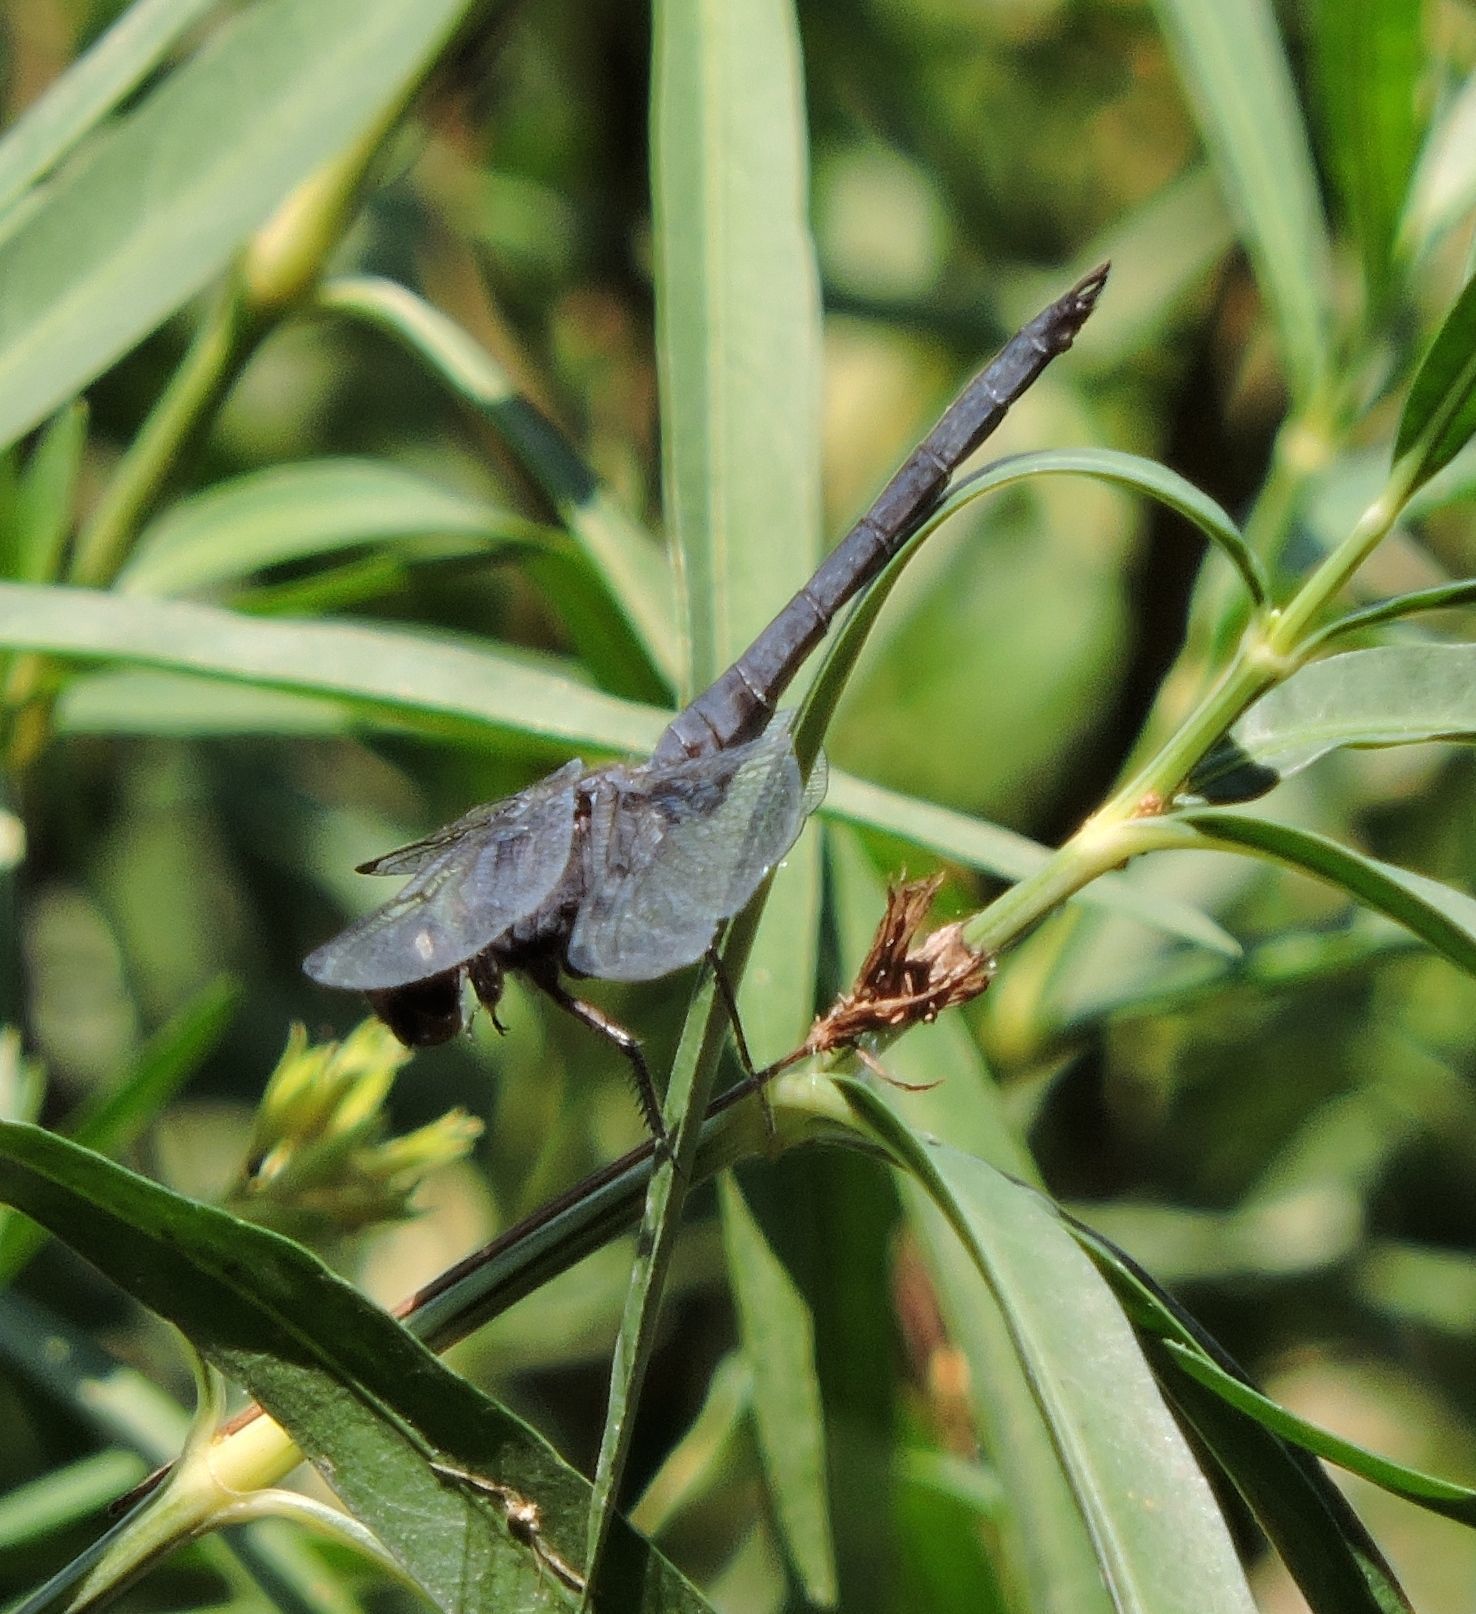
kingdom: Animalia
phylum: Arthropoda
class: Insecta
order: Odonata
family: Libellulidae
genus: Libellula
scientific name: Libellula incesta
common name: Slaty skimmer
